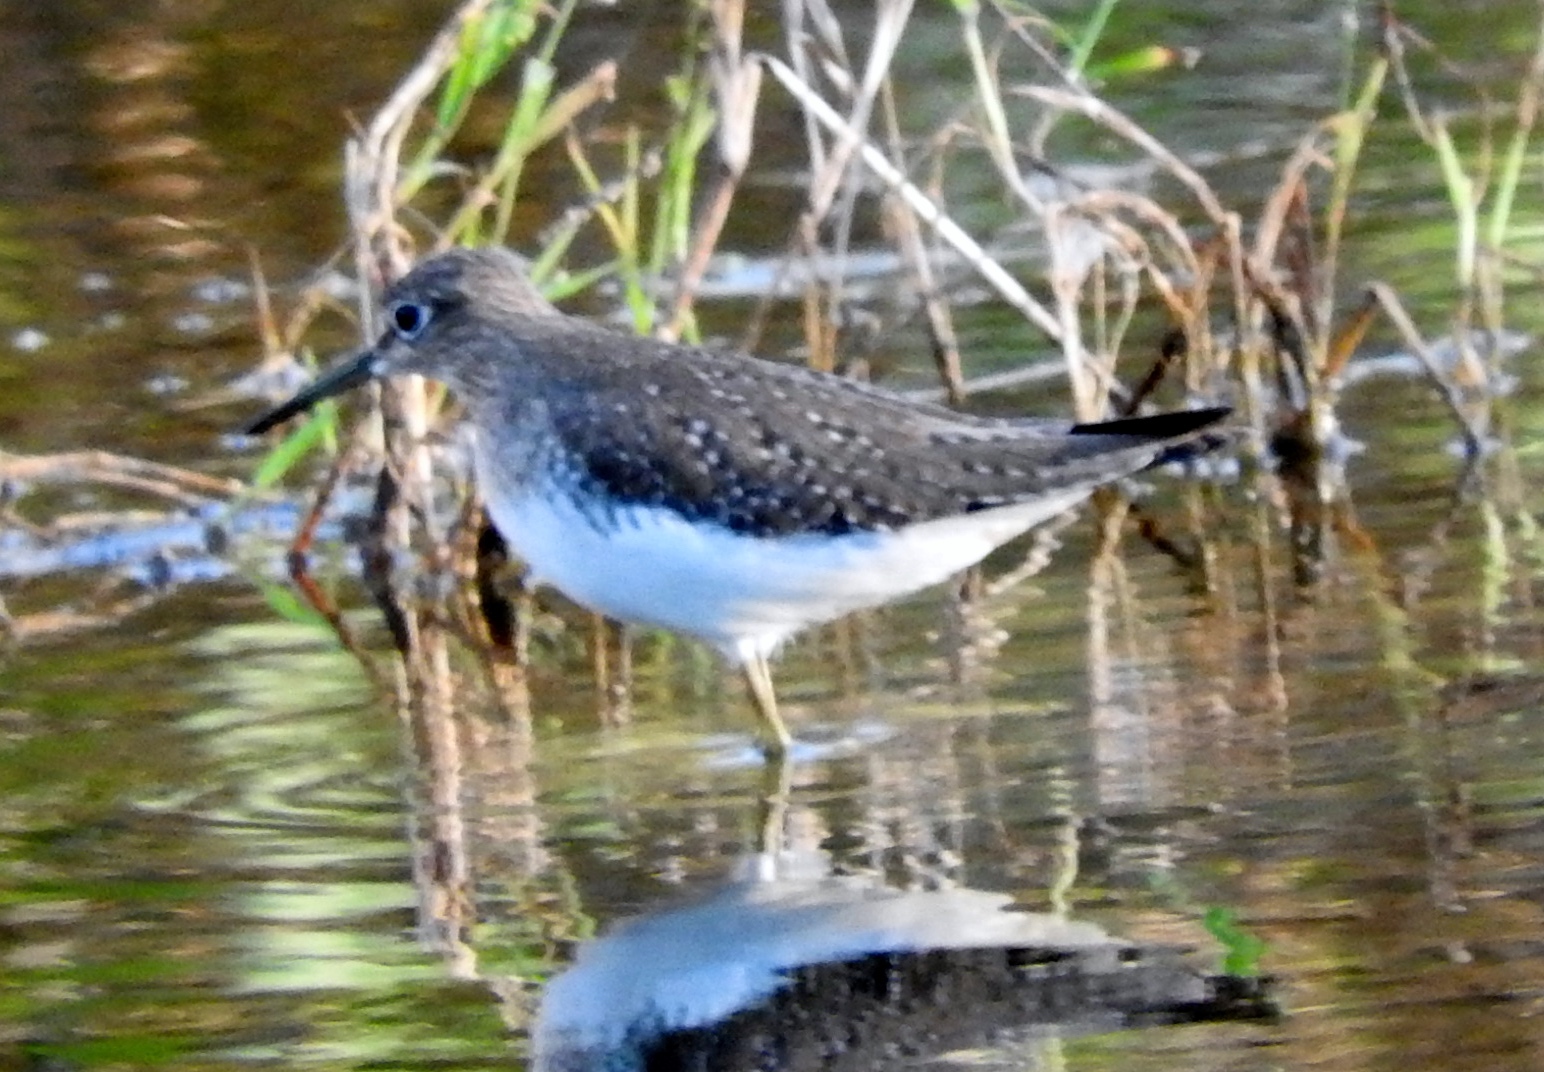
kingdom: Animalia
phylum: Chordata
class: Aves
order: Charadriiformes
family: Scolopacidae
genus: Tringa
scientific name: Tringa solitaria
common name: Solitary sandpiper
